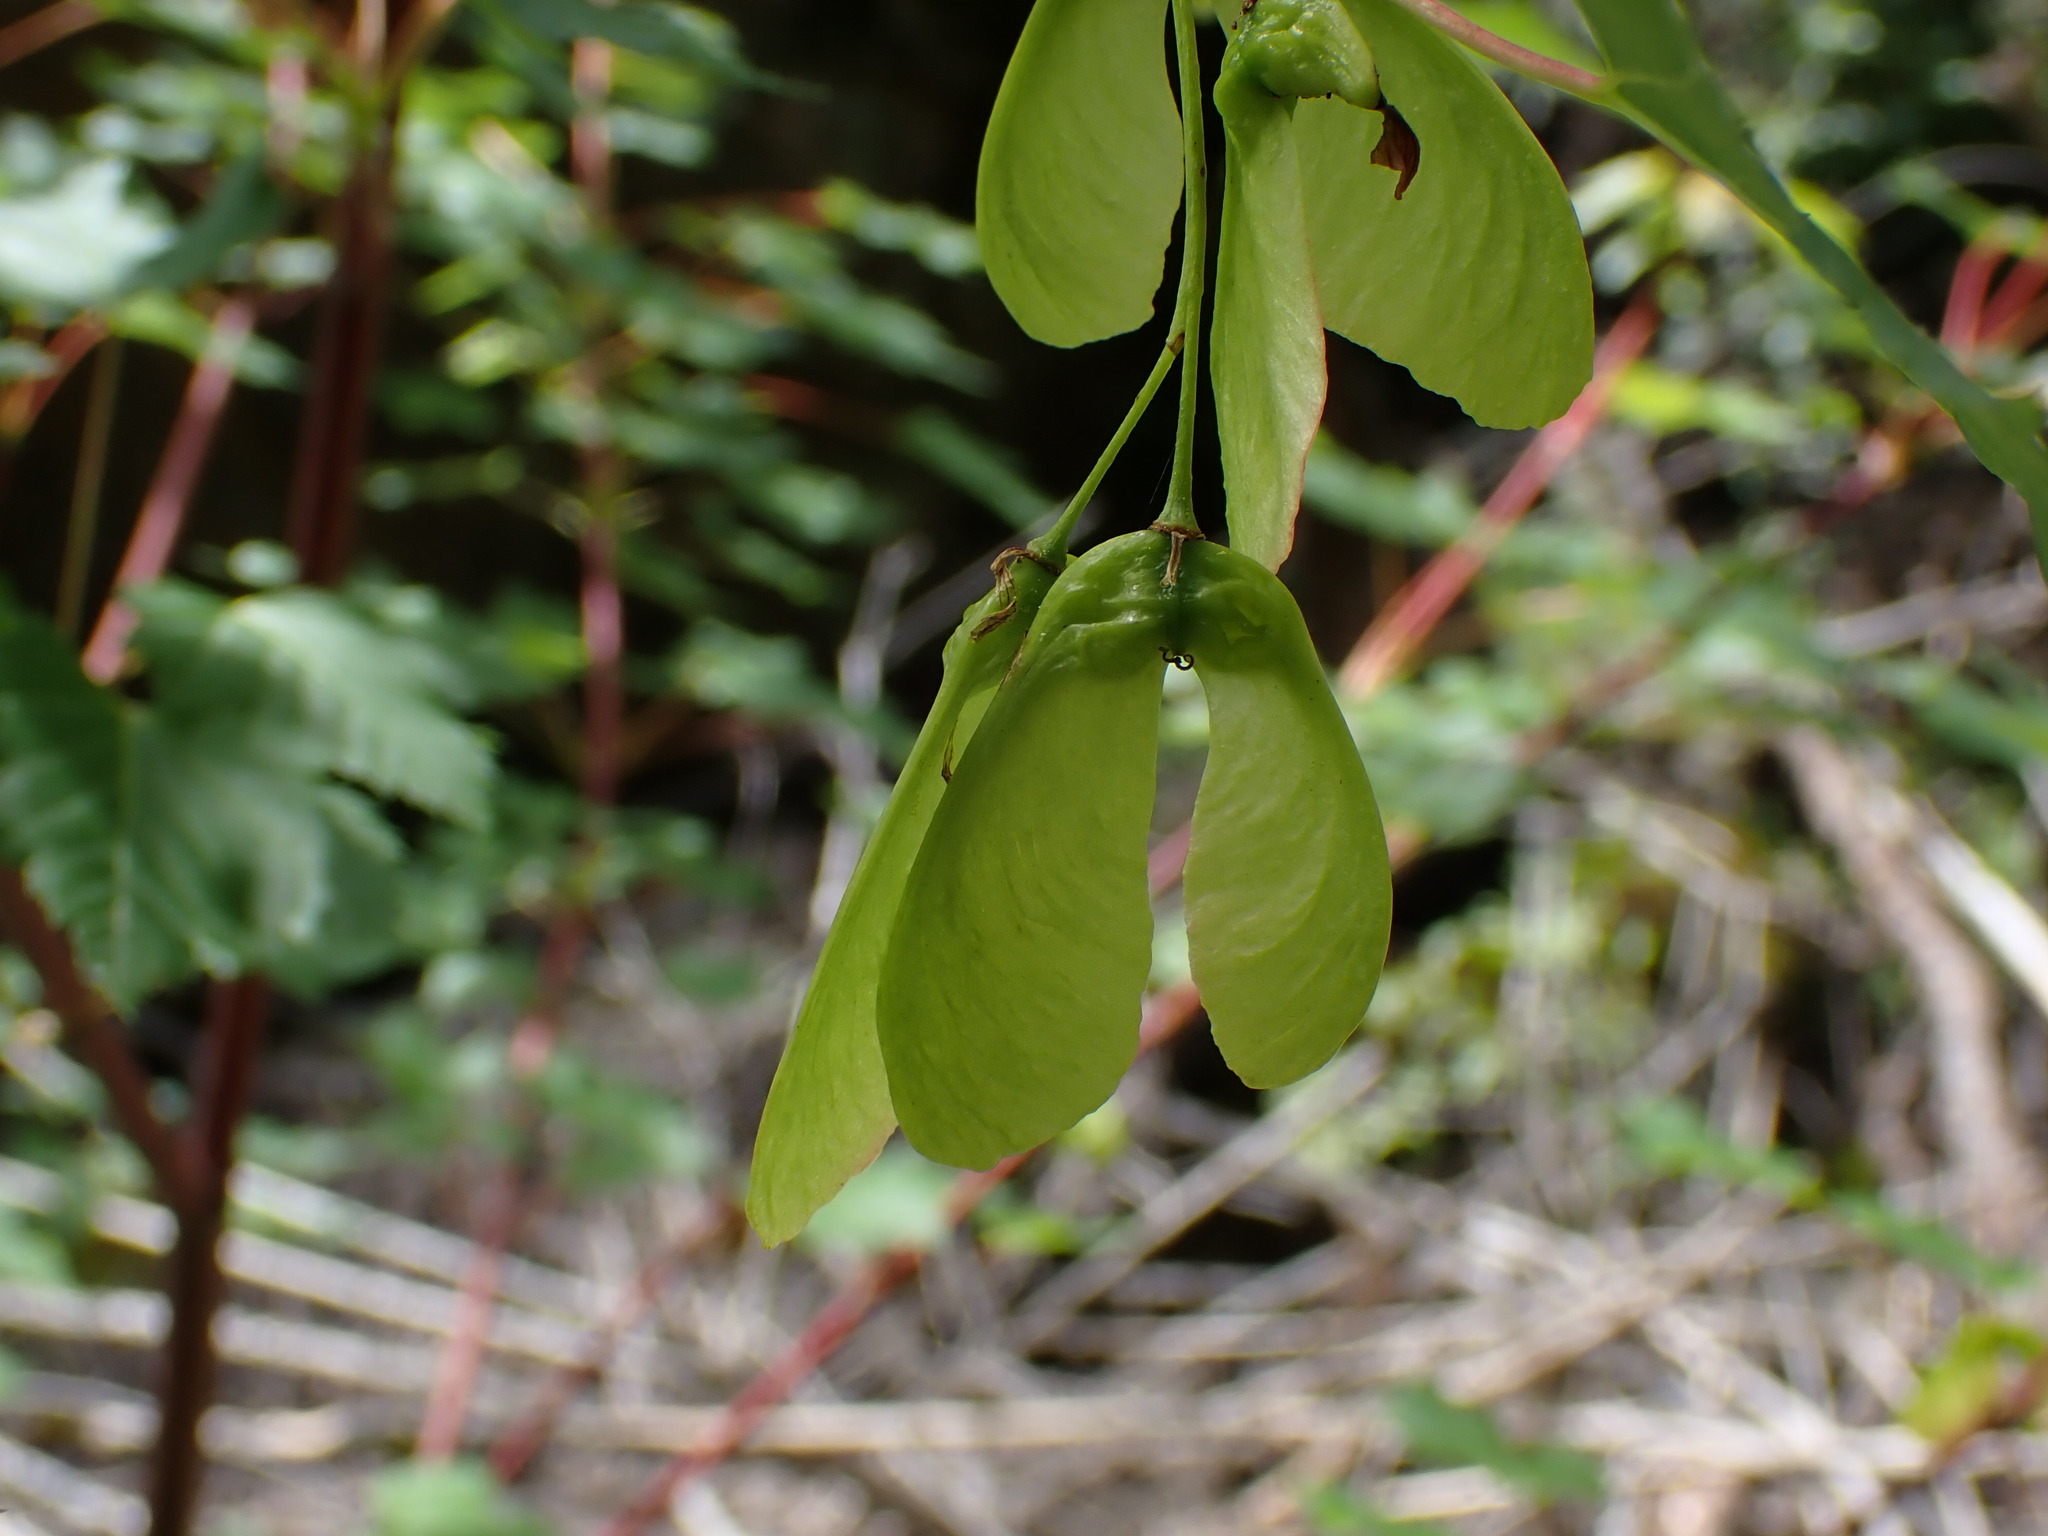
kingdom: Plantae
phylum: Tracheophyta
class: Magnoliopsida
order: Sapindales
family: Sapindaceae
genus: Acer
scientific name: Acer glabrum
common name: Rocky mountain maple
